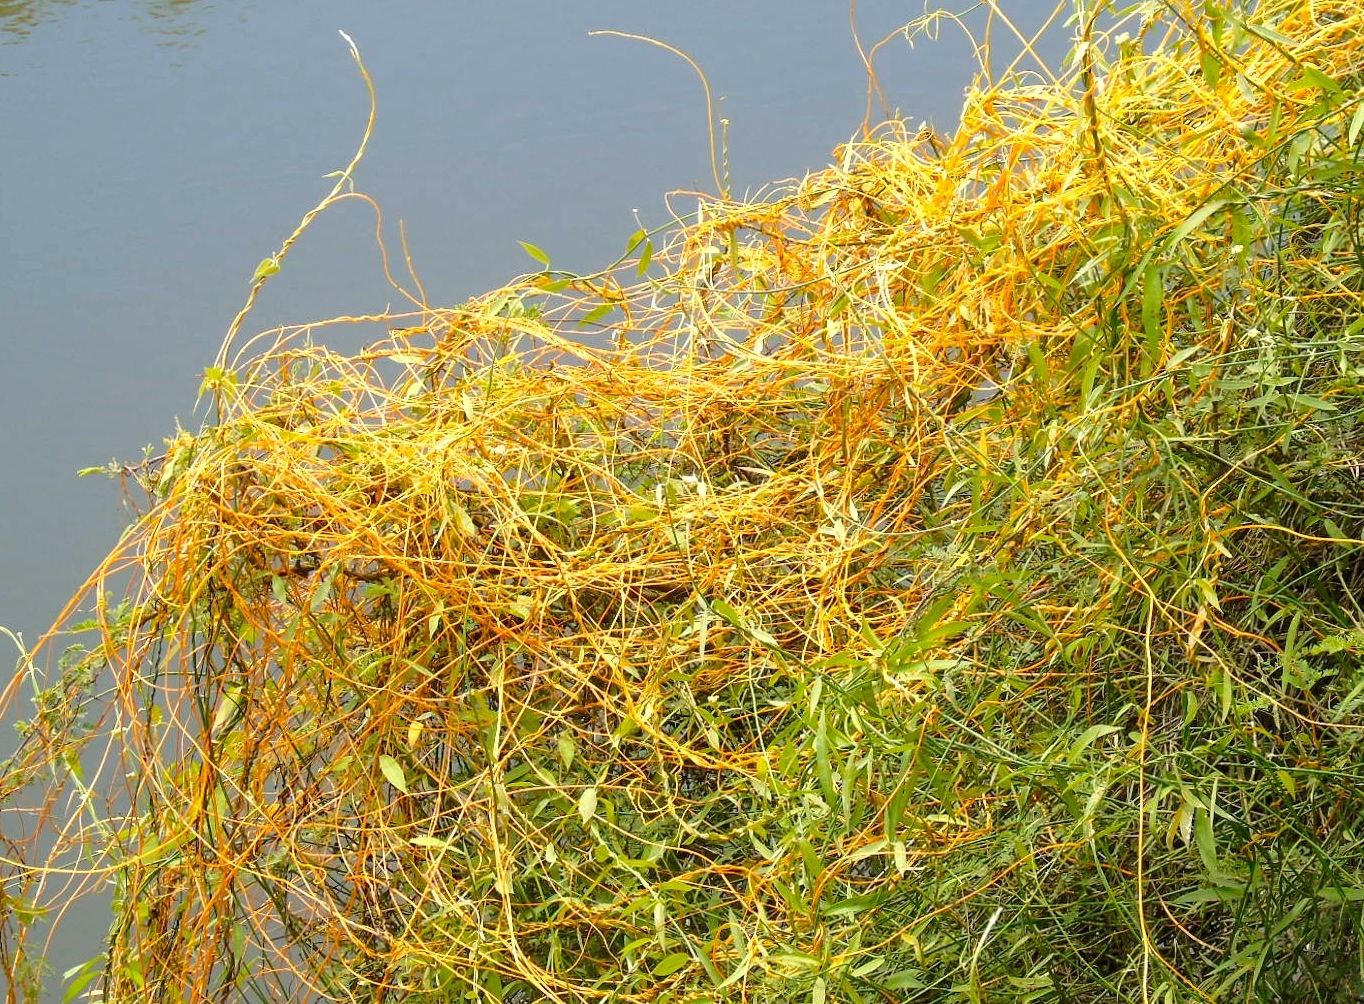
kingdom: Plantae
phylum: Tracheophyta
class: Magnoliopsida
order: Solanales
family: Convolvulaceae
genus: Cuscuta
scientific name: Cuscuta
